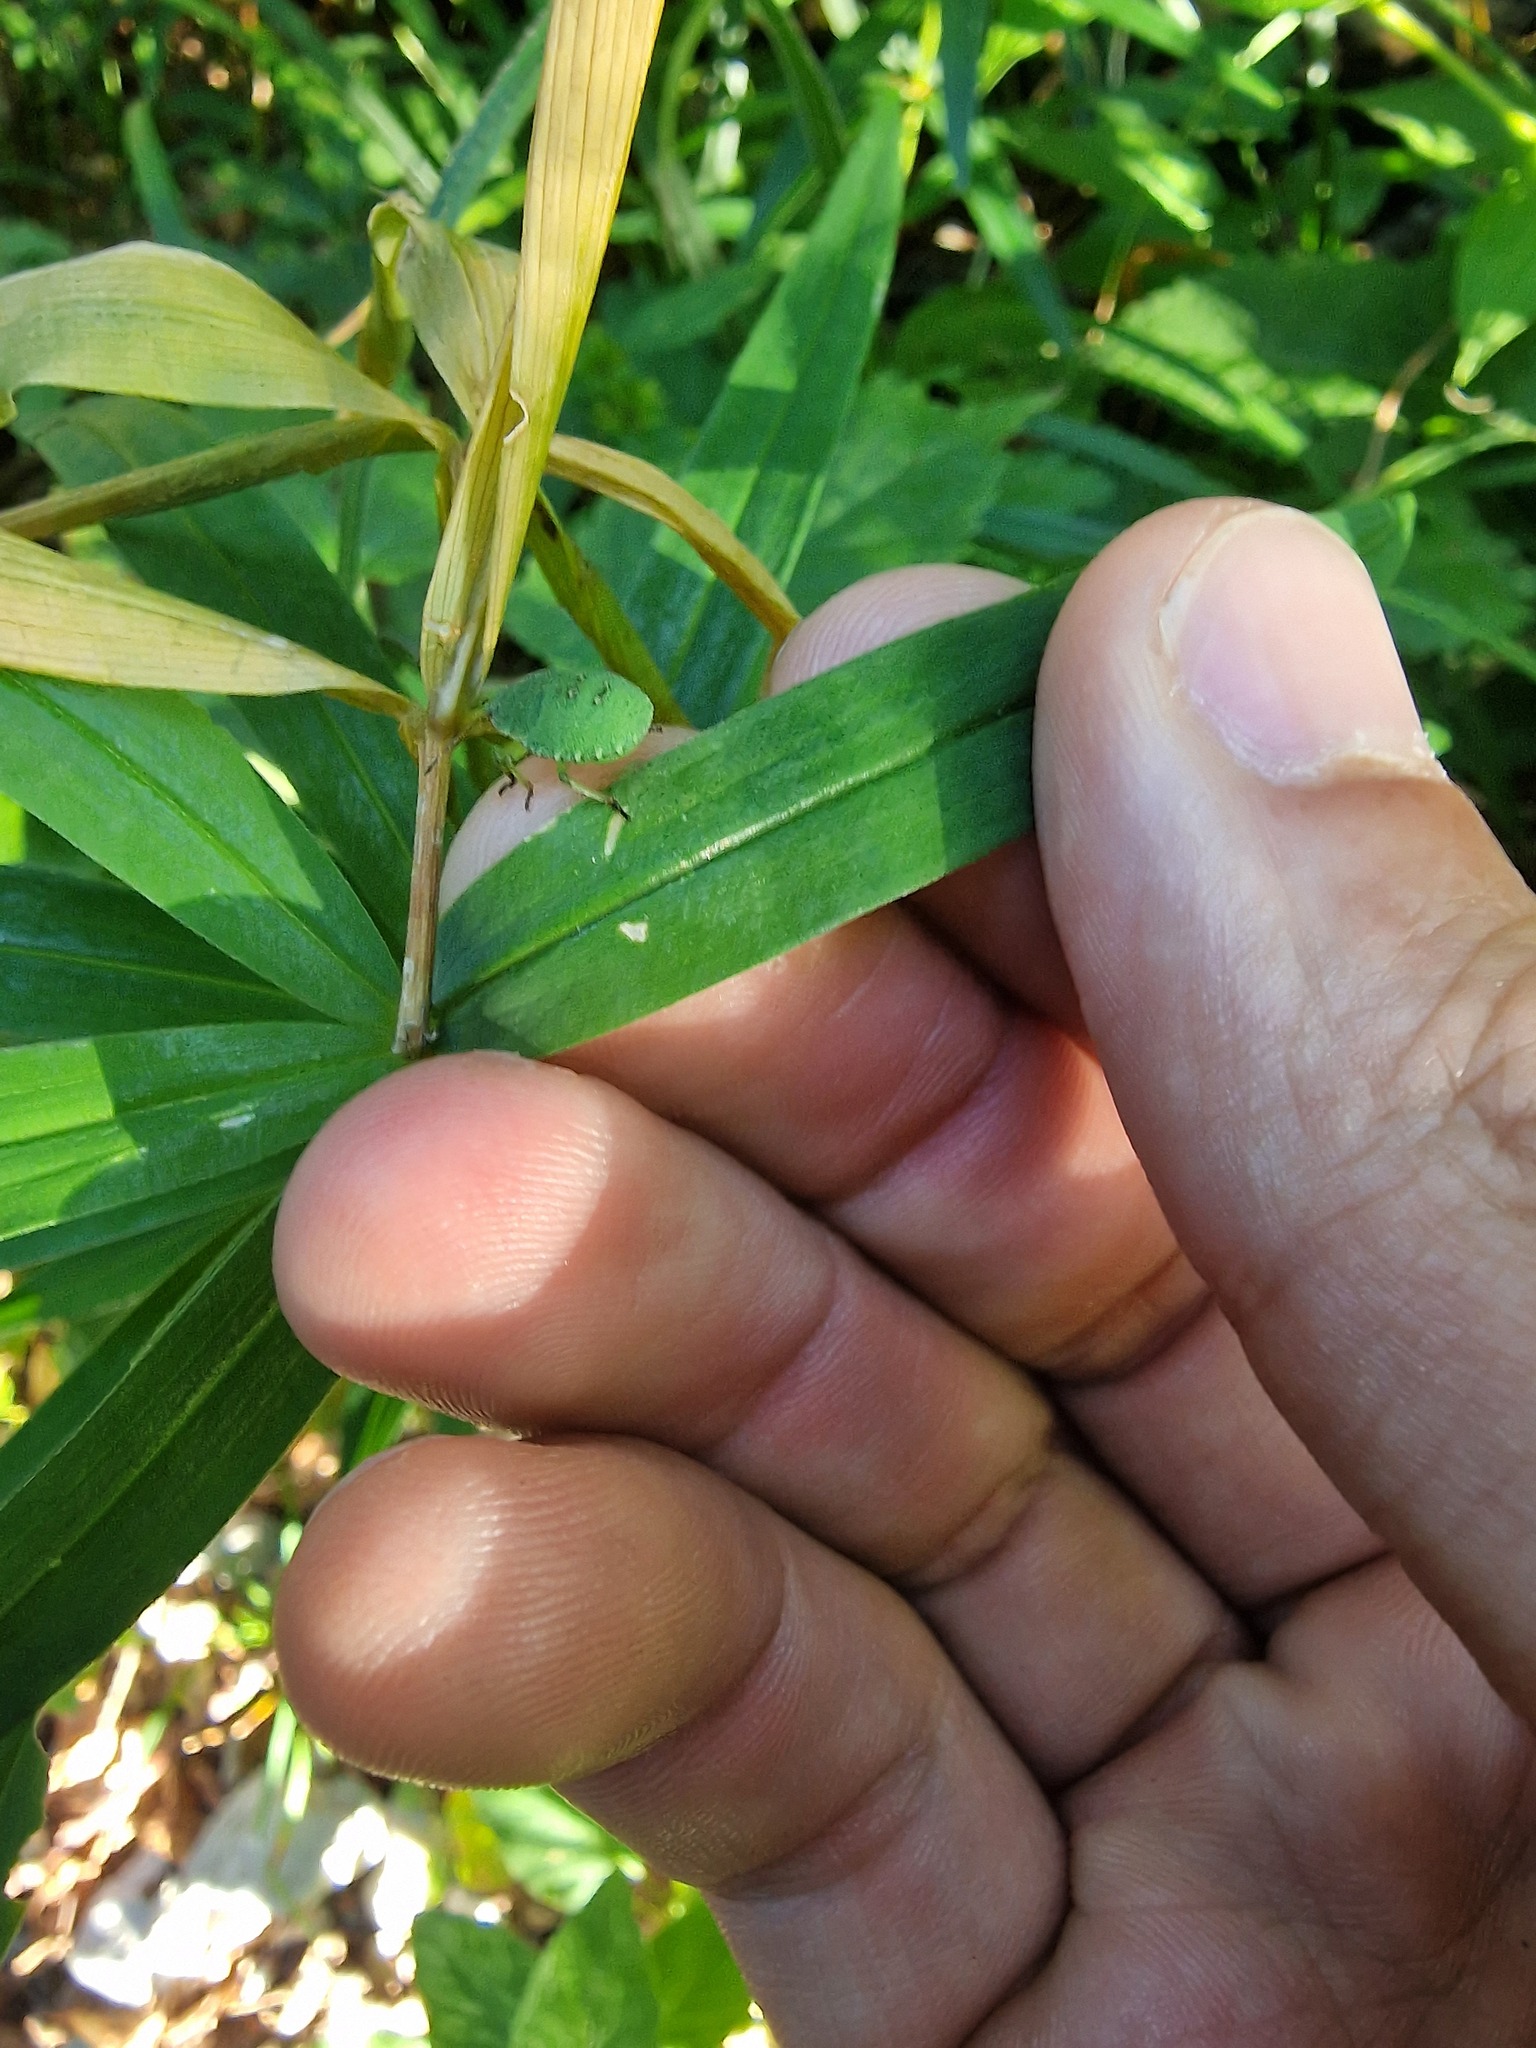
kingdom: Animalia
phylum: Arthropoda
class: Insecta
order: Hemiptera
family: Pentatomidae
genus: Palomena
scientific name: Palomena prasina
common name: Green shieldbug
